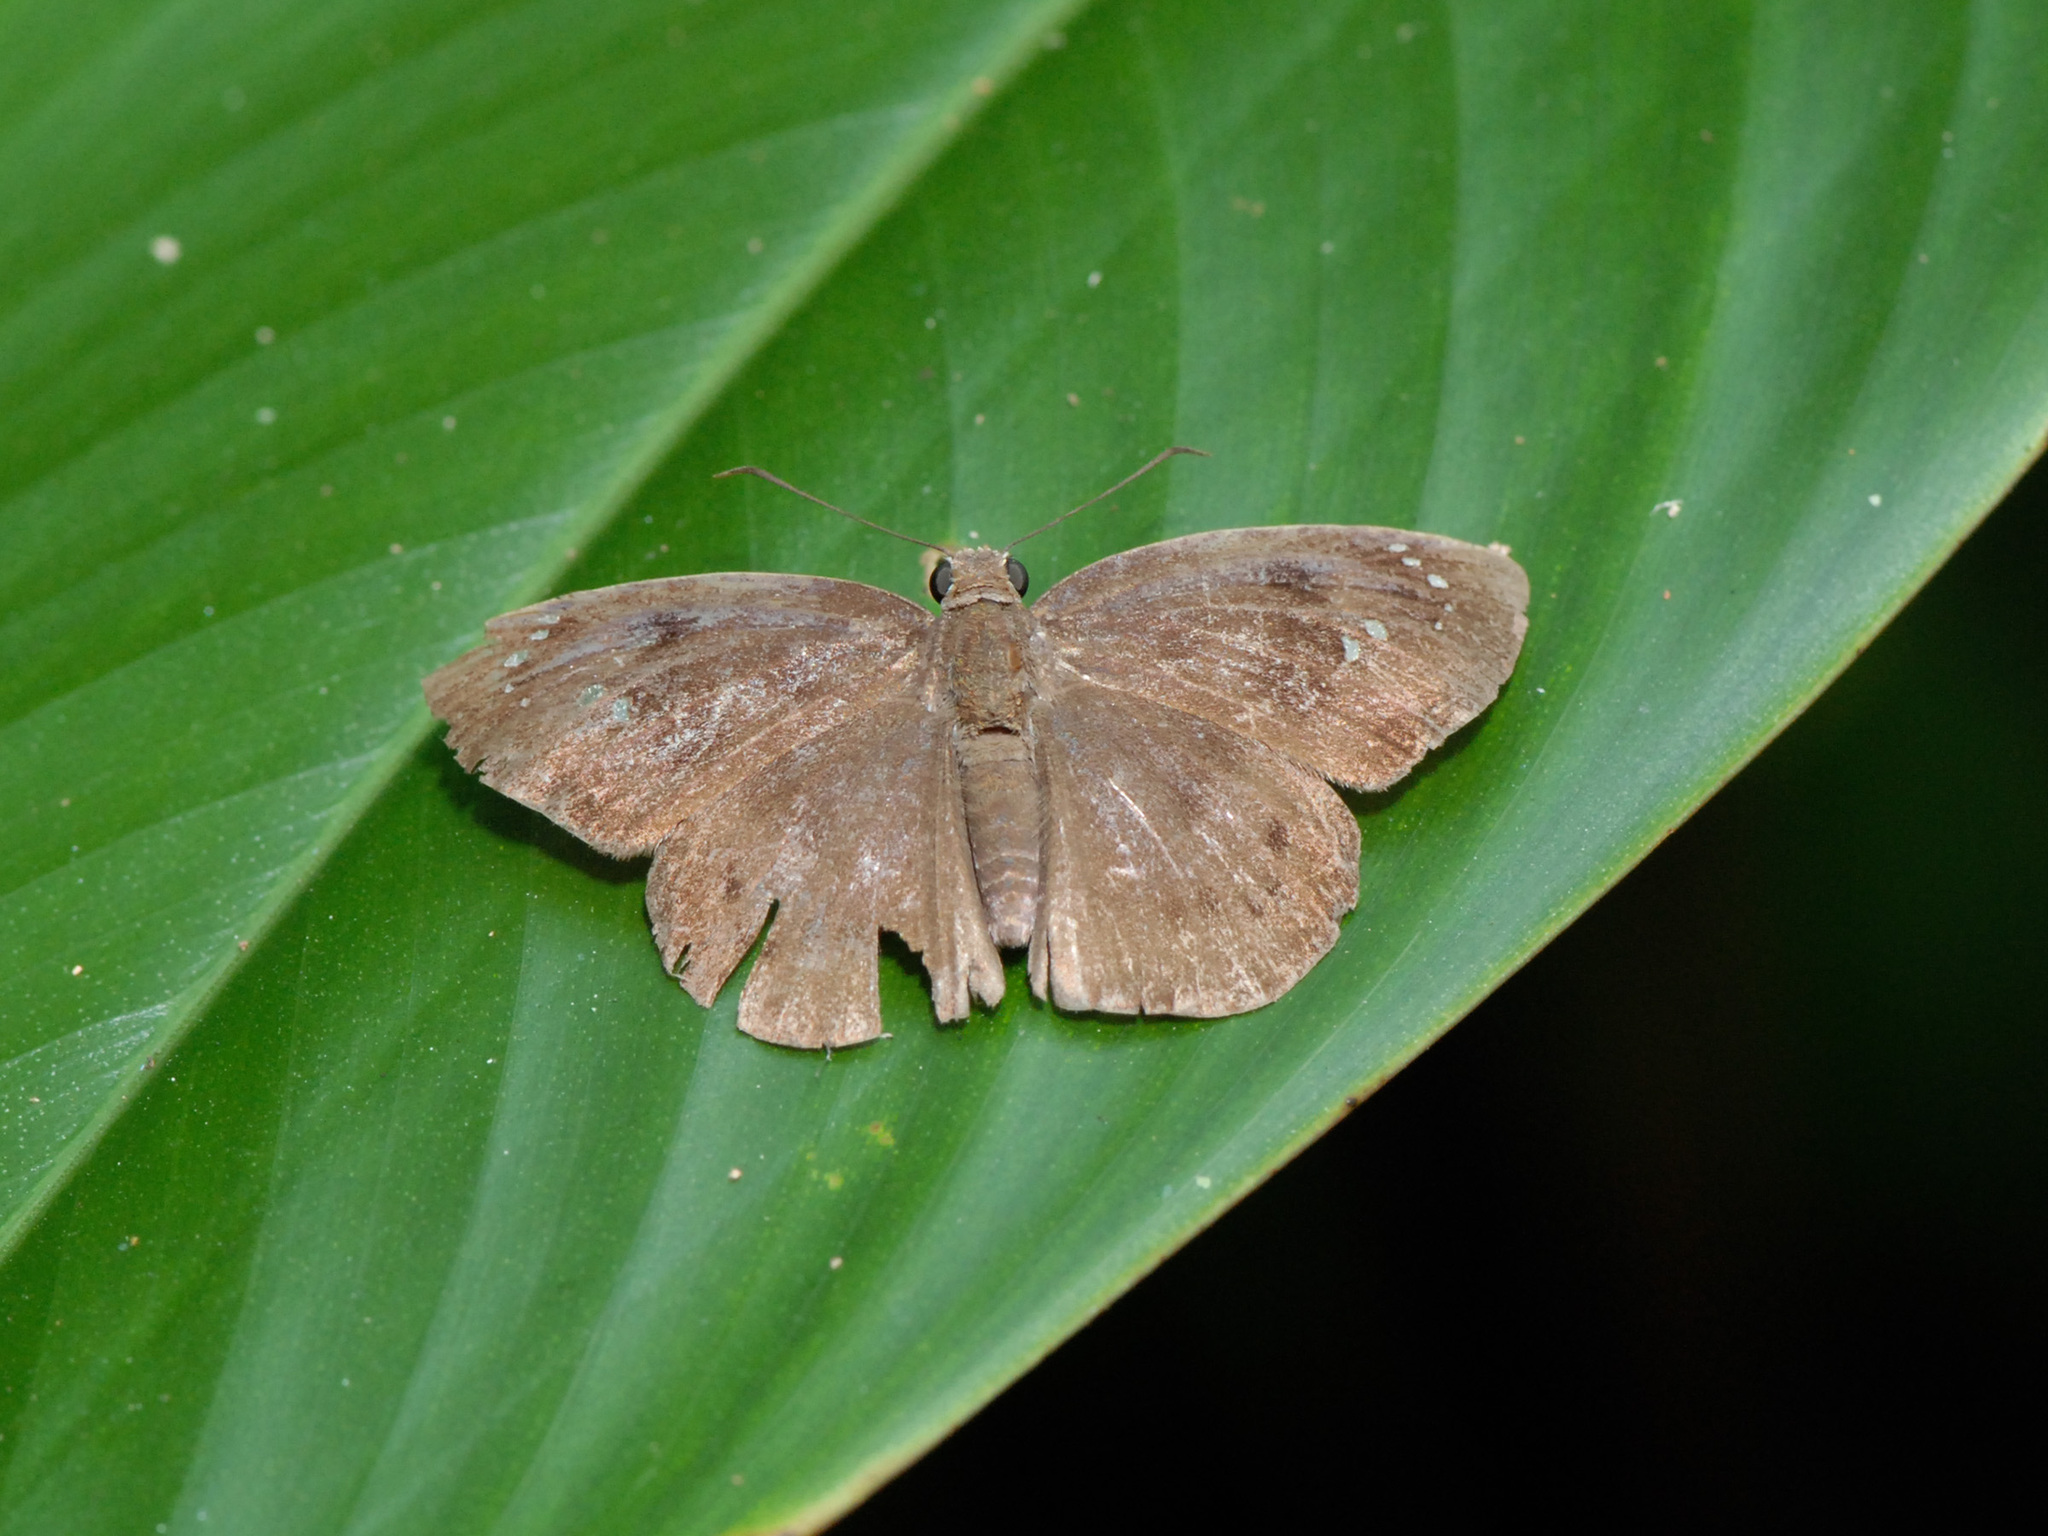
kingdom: Animalia
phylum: Arthropoda
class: Insecta
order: Lepidoptera
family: Hesperiidae
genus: Tagiades
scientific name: Tagiades japetus
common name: Pied flat
